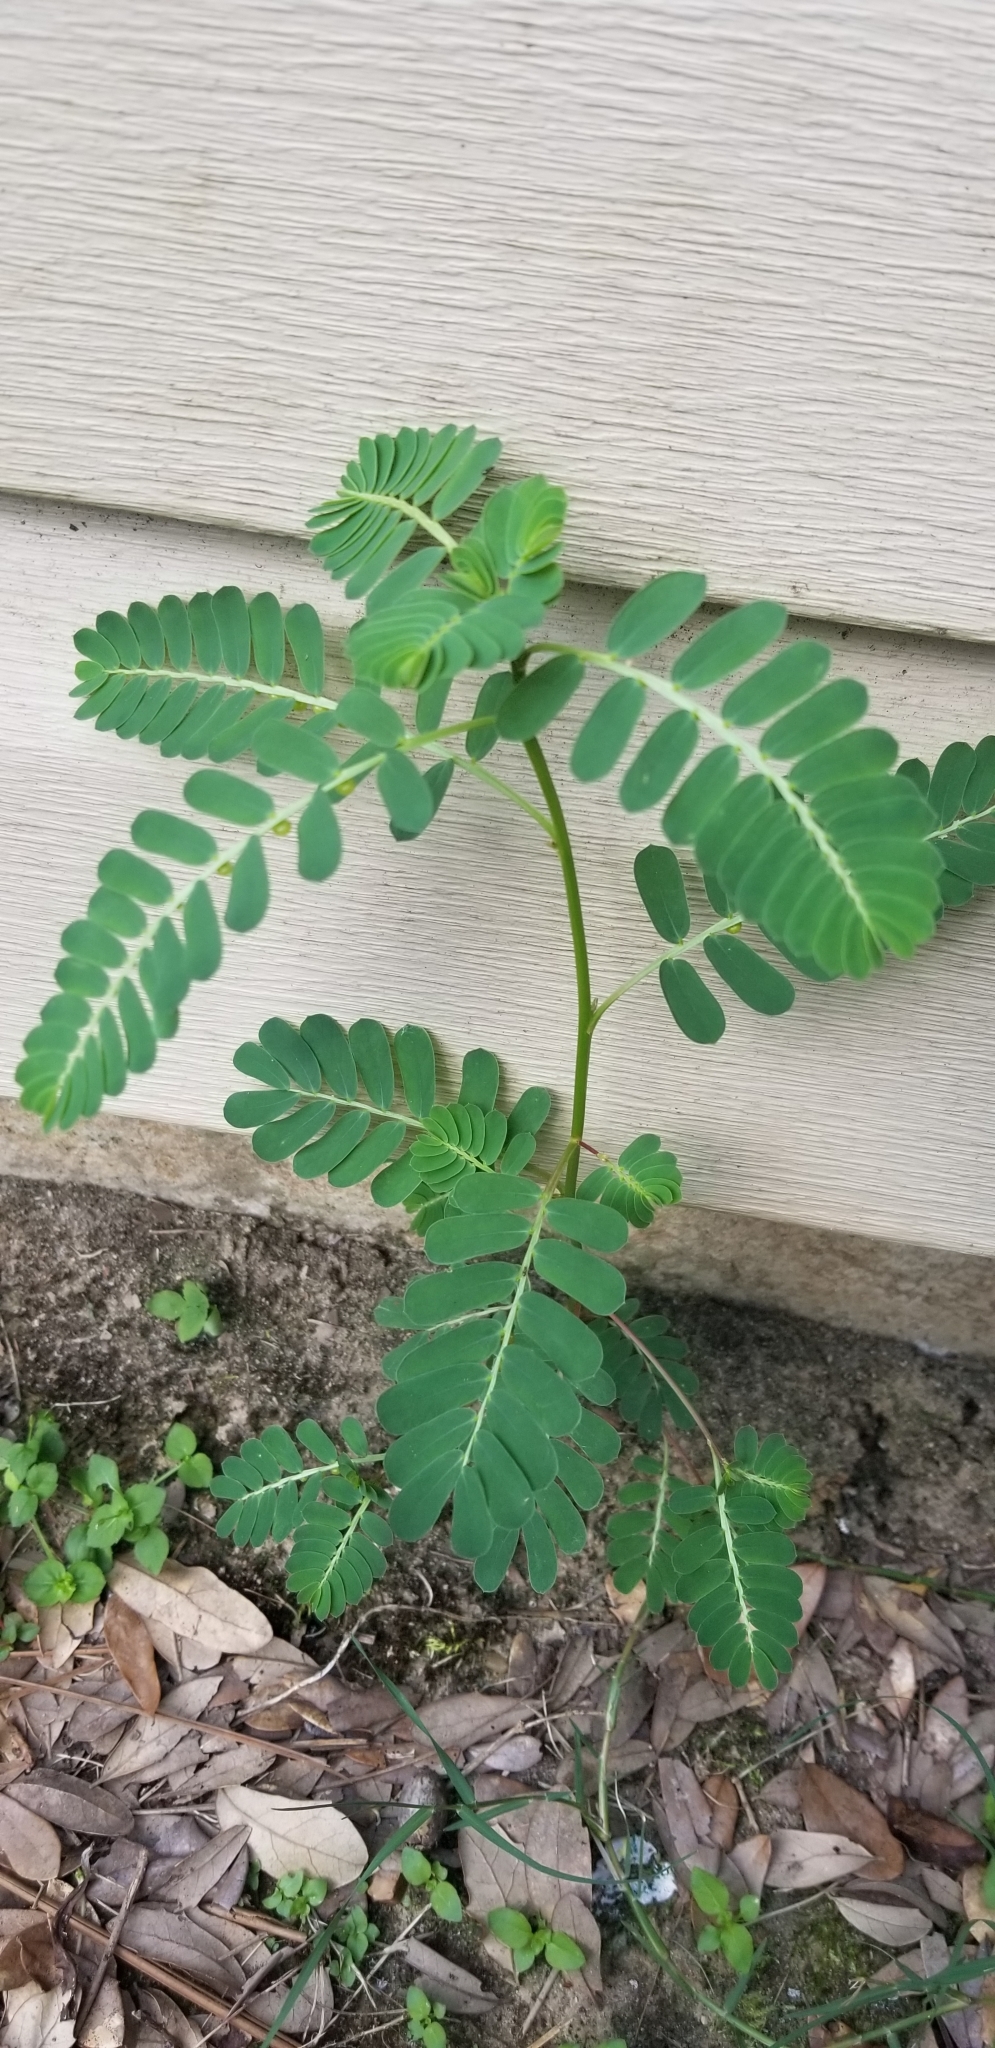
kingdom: Plantae
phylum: Tracheophyta
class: Magnoliopsida
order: Malpighiales
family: Phyllanthaceae
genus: Phyllanthus
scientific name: Phyllanthus urinaria
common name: Chamber bitter
